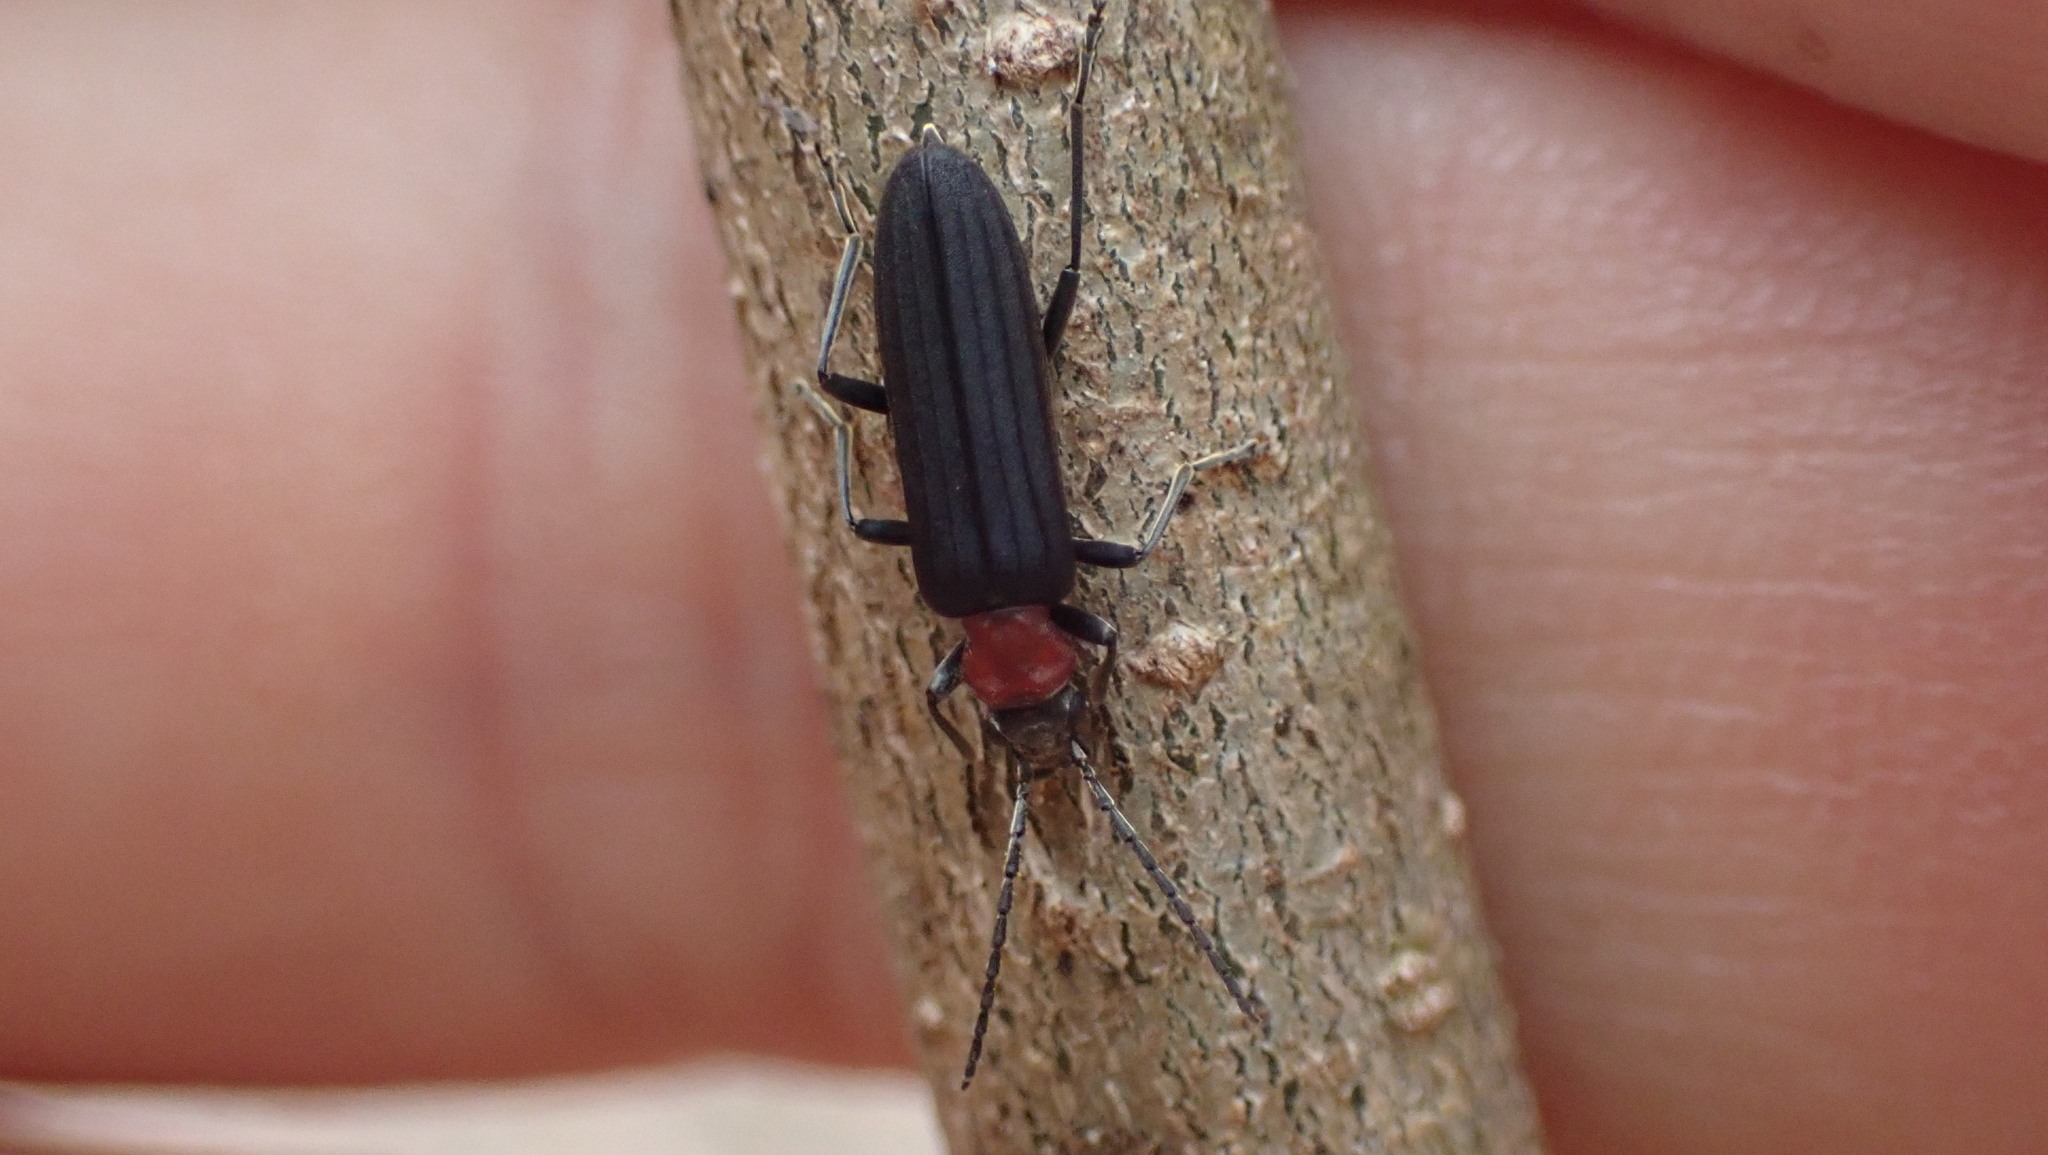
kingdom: Animalia
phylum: Arthropoda
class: Insecta
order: Coleoptera
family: Oedemeridae
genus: Ischnomera
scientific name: Ischnomera
